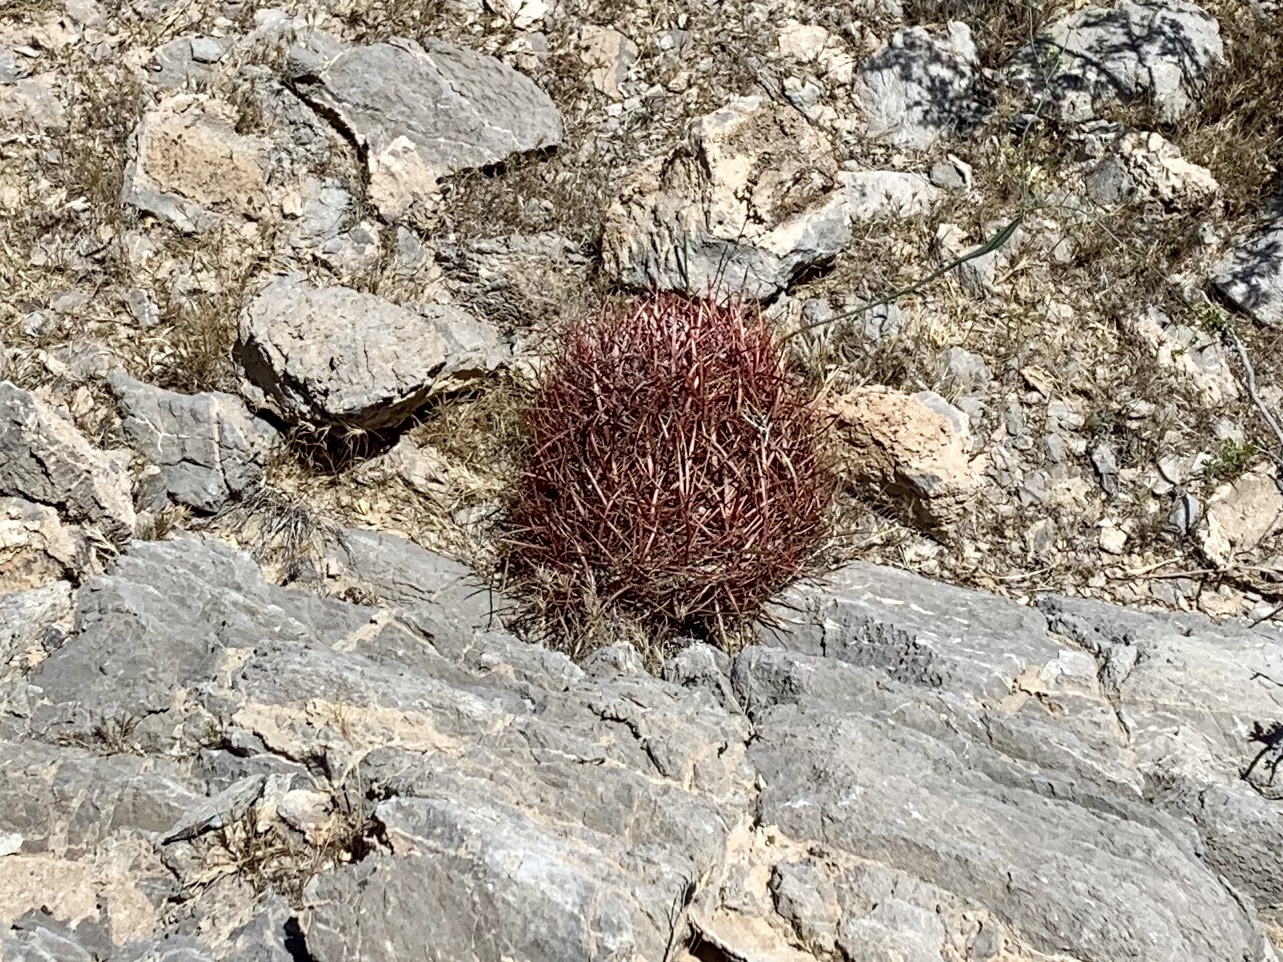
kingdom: Plantae
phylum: Tracheophyta
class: Magnoliopsida
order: Caryophyllales
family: Cactaceae
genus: Ferocactus
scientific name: Ferocactus cylindraceus
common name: California barrel cactus
